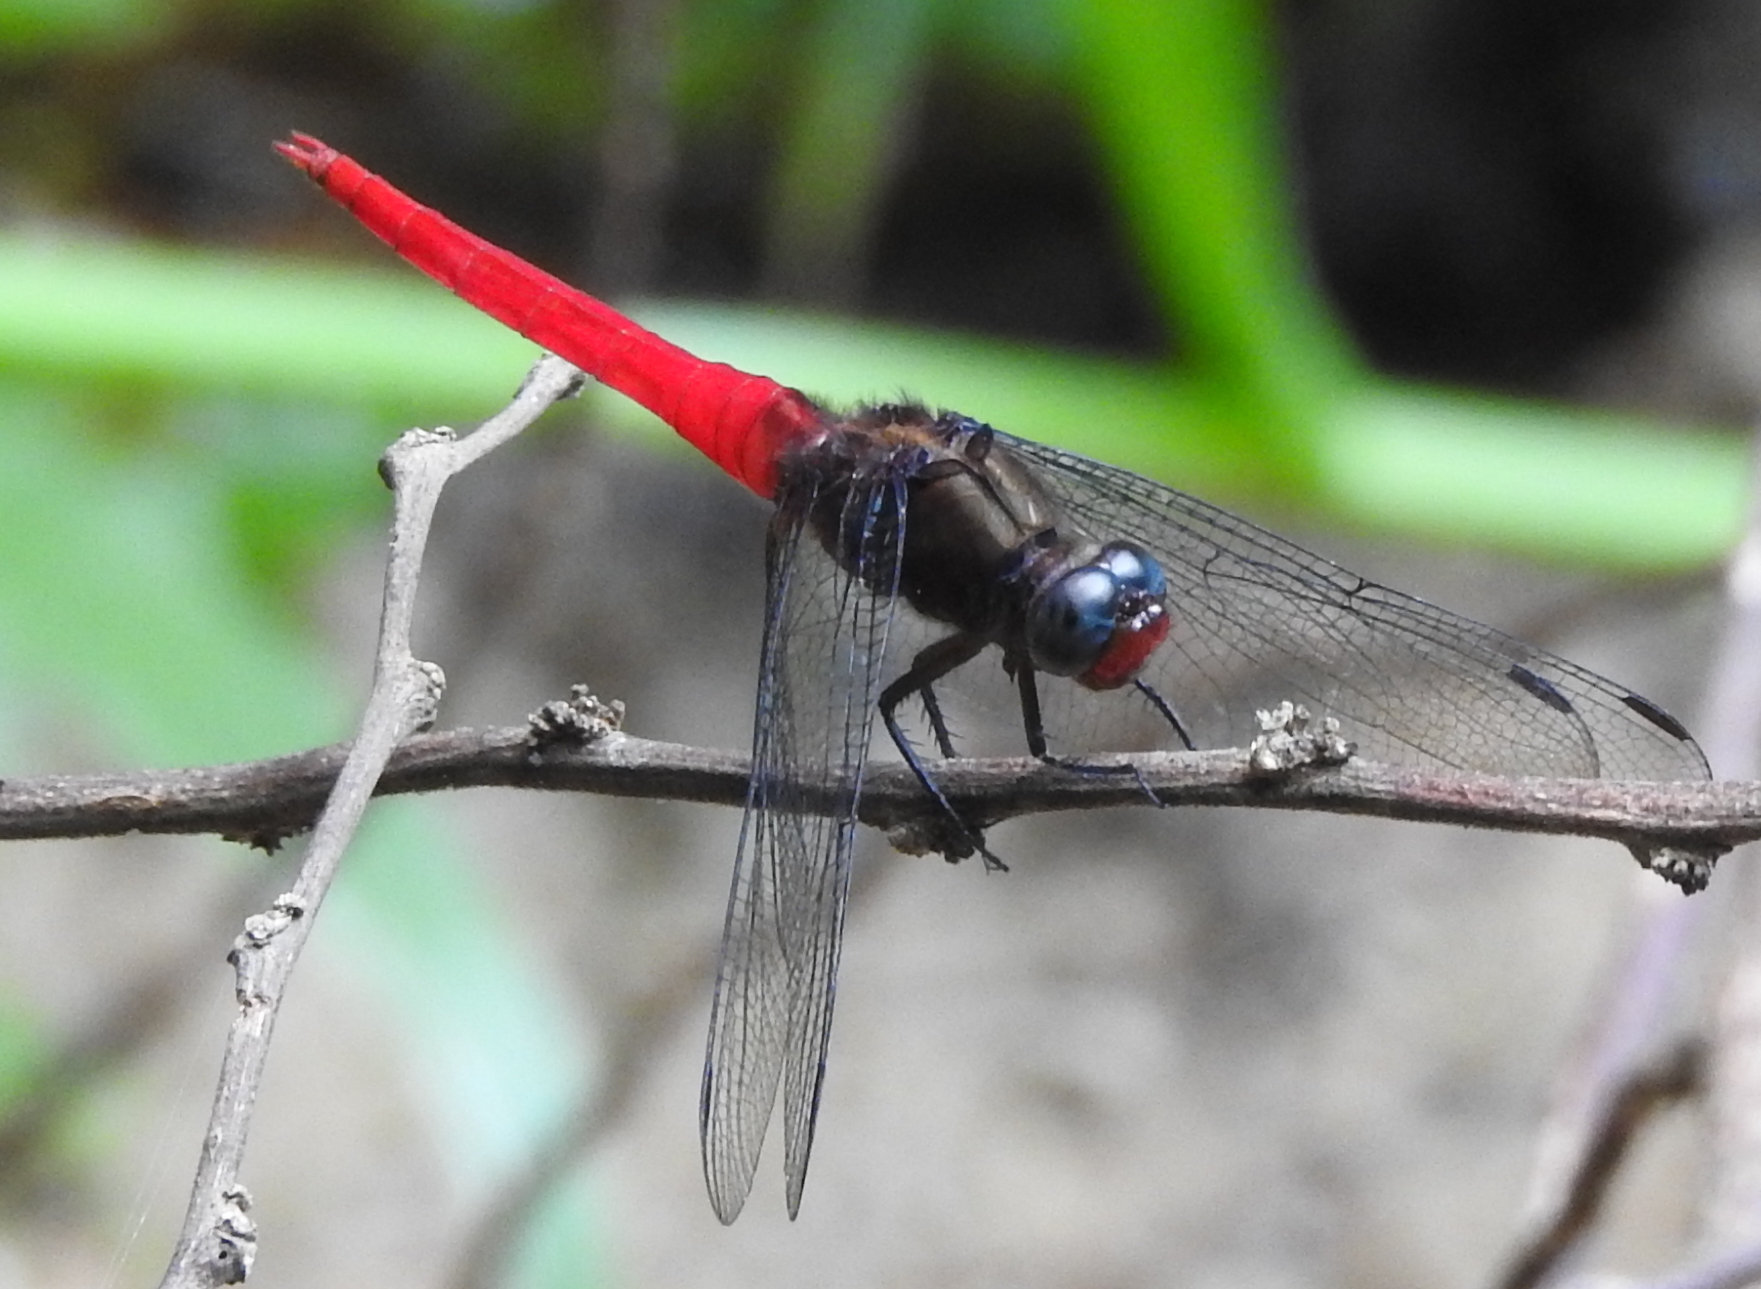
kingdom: Animalia
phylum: Arthropoda
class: Insecta
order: Odonata
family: Libellulidae
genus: Orthetrum
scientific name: Orthetrum chrysis
